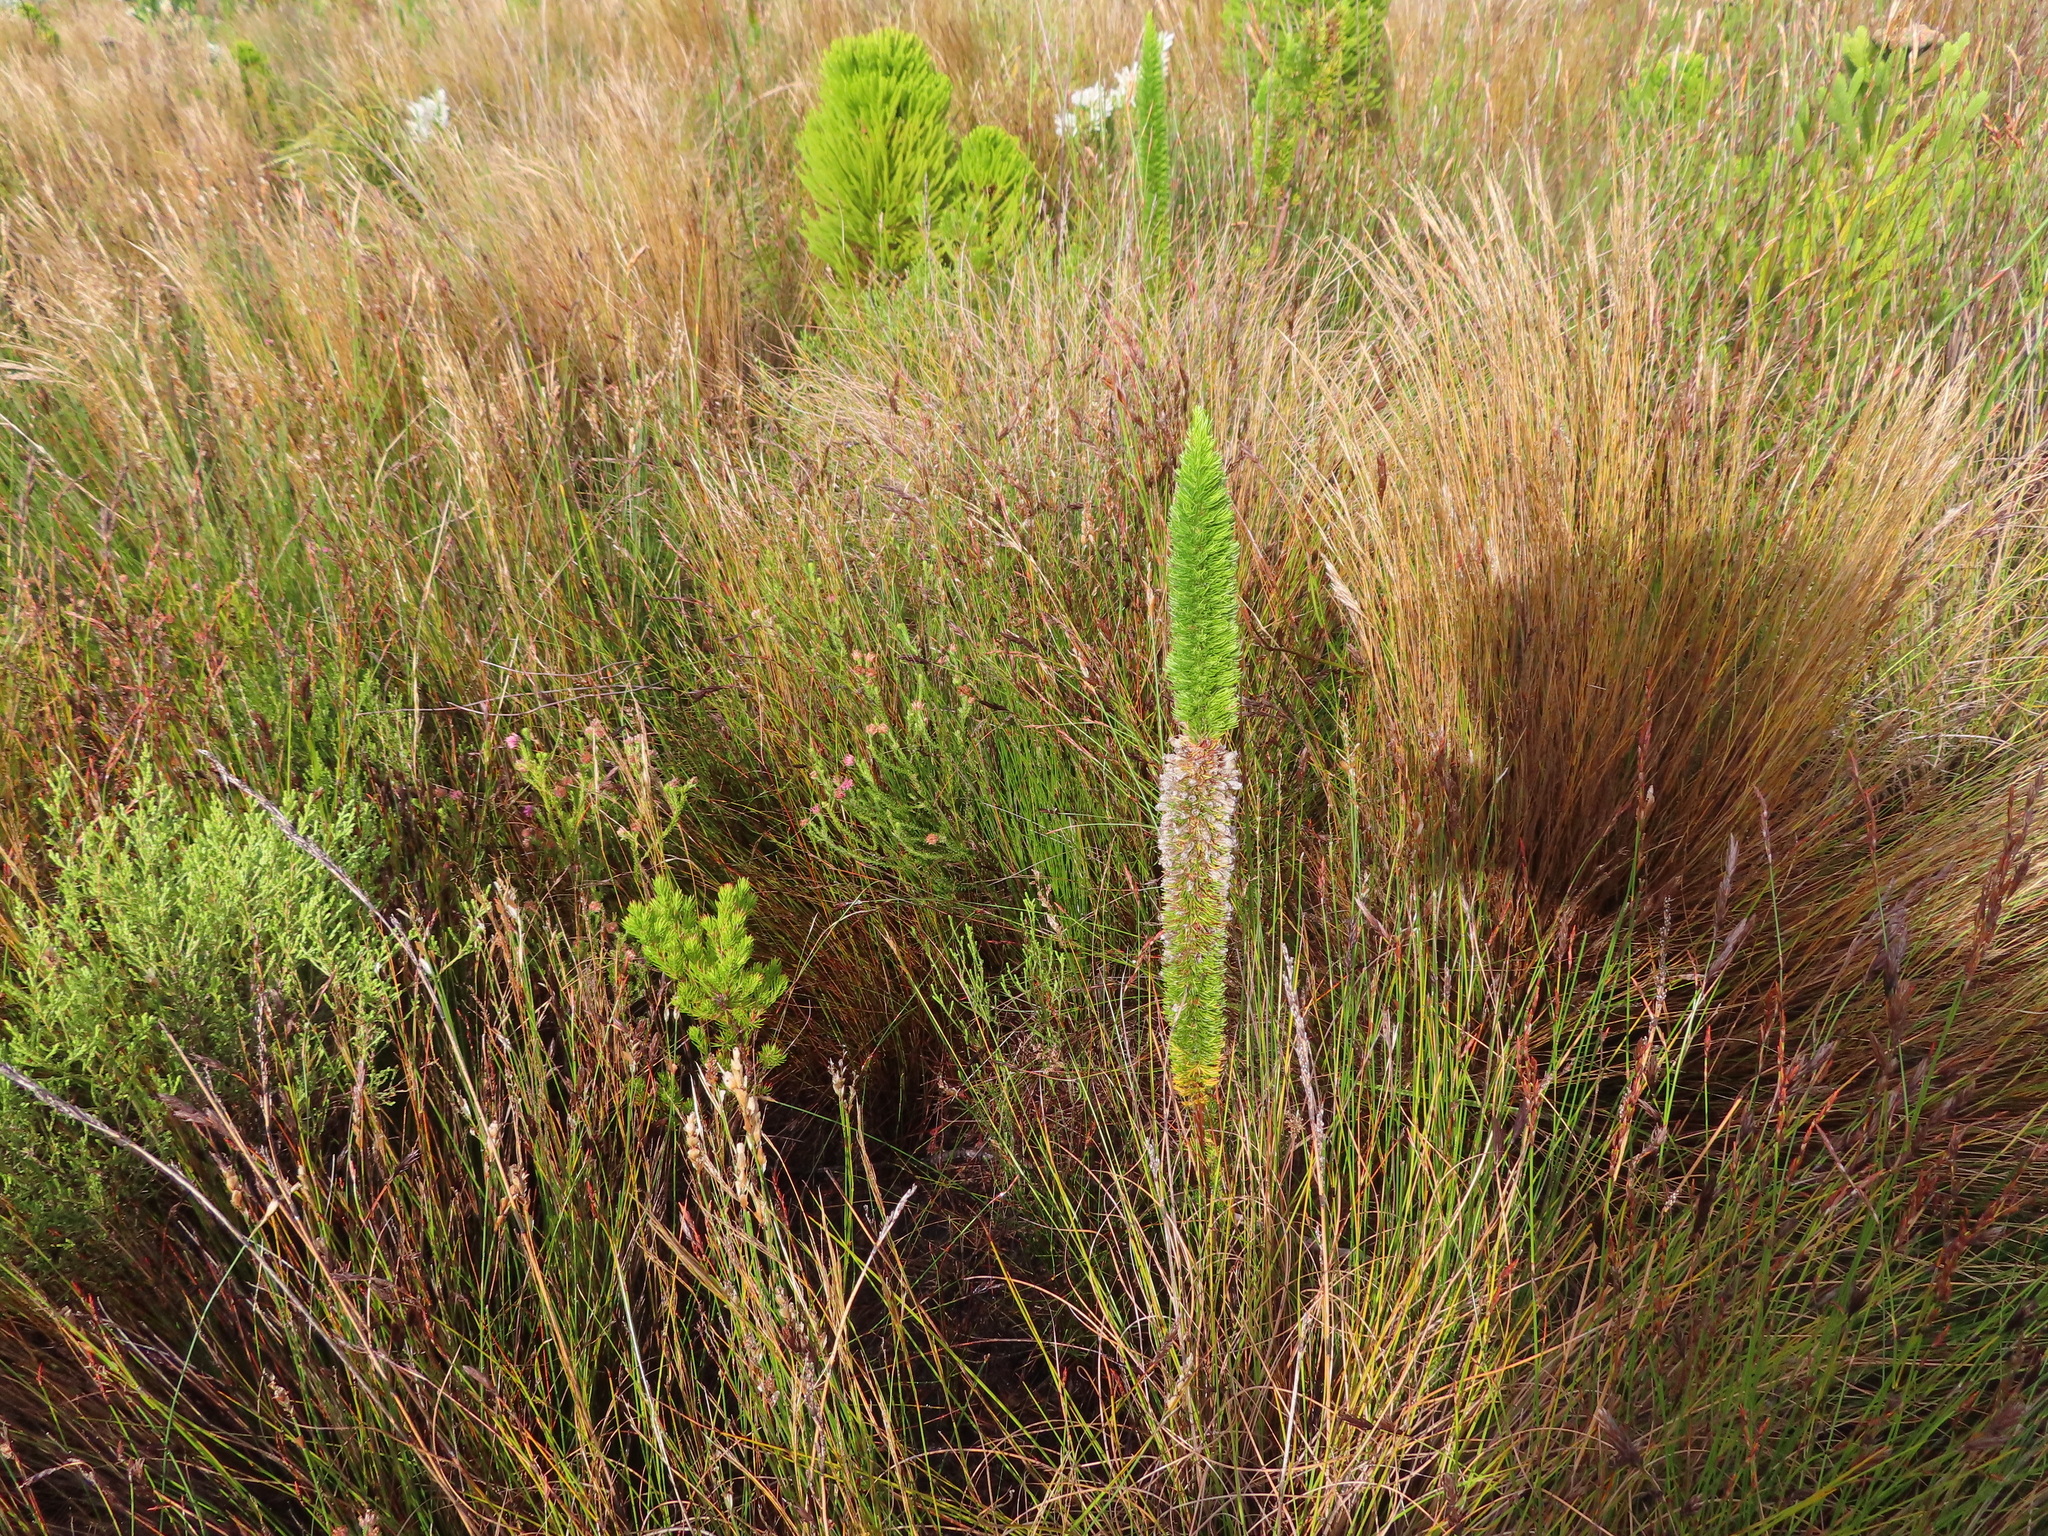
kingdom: Plantae
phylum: Tracheophyta
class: Magnoliopsida
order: Ericales
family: Ericaceae
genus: Erica
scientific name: Erica patersonia
